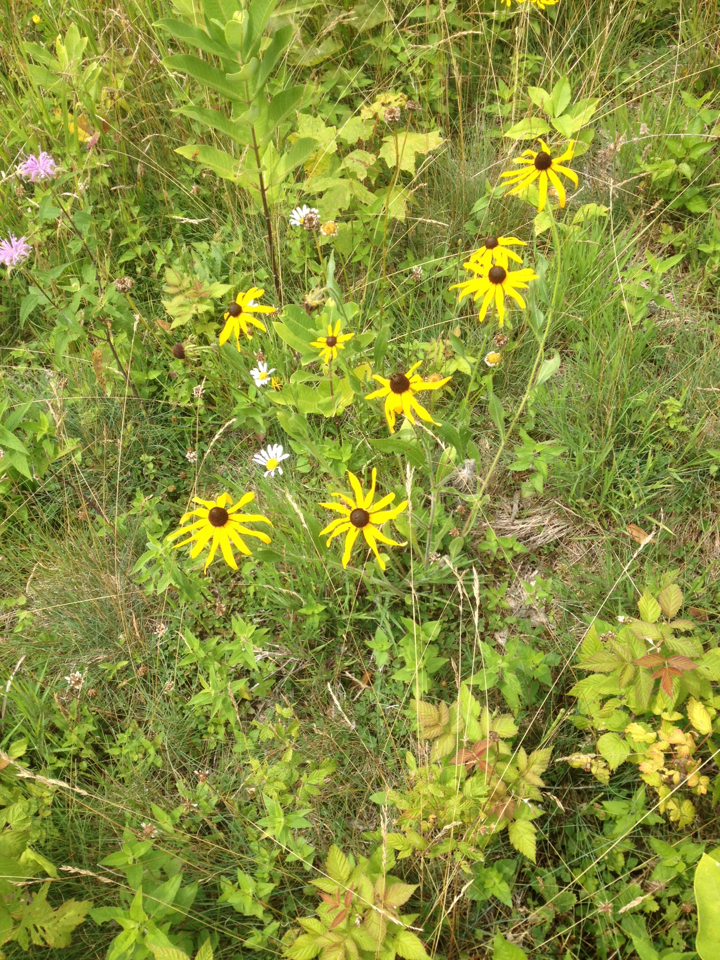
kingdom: Plantae
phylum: Tracheophyta
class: Magnoliopsida
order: Asterales
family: Asteraceae
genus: Rudbeckia
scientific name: Rudbeckia hirta
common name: Black-eyed-susan
